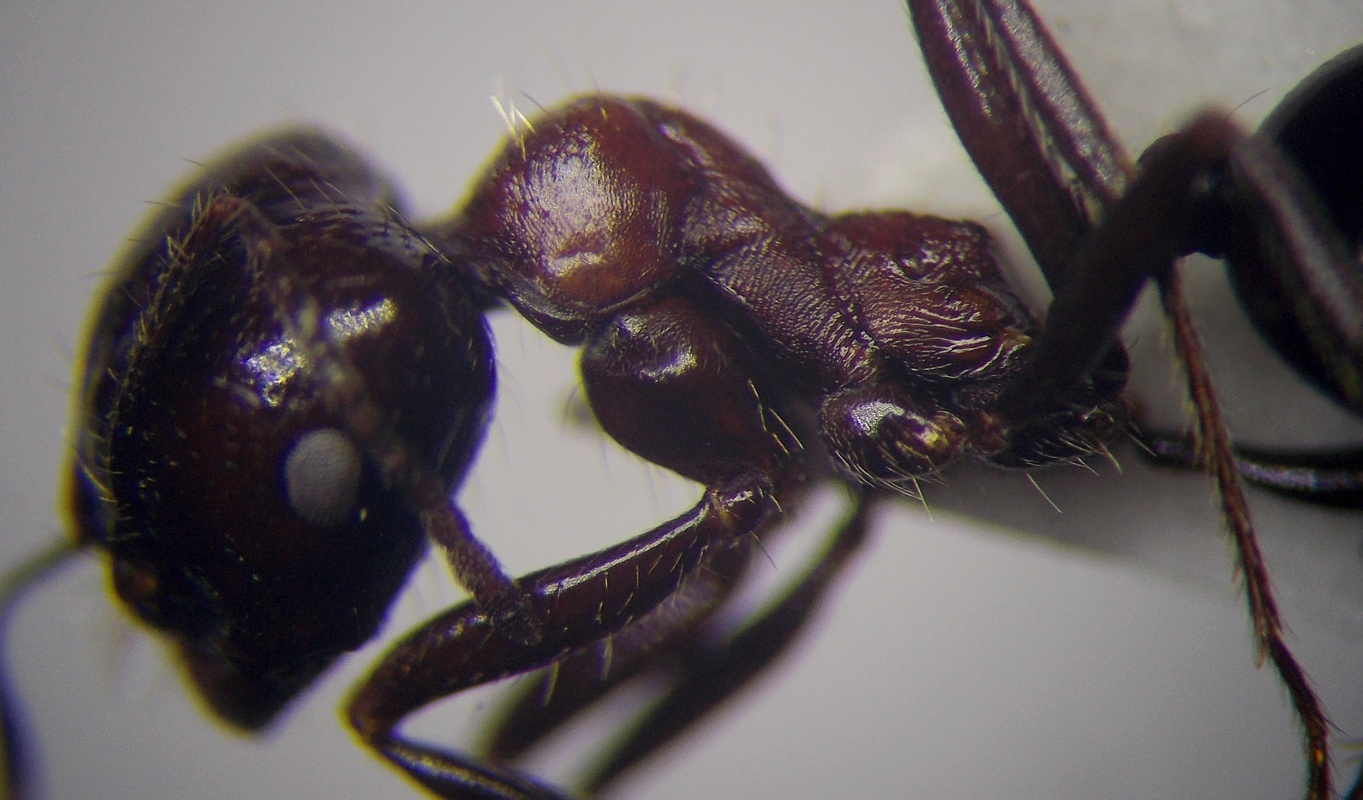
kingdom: Animalia
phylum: Arthropoda
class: Insecta
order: Hymenoptera
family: Formicidae
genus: Messor
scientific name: Messor denticulatus
